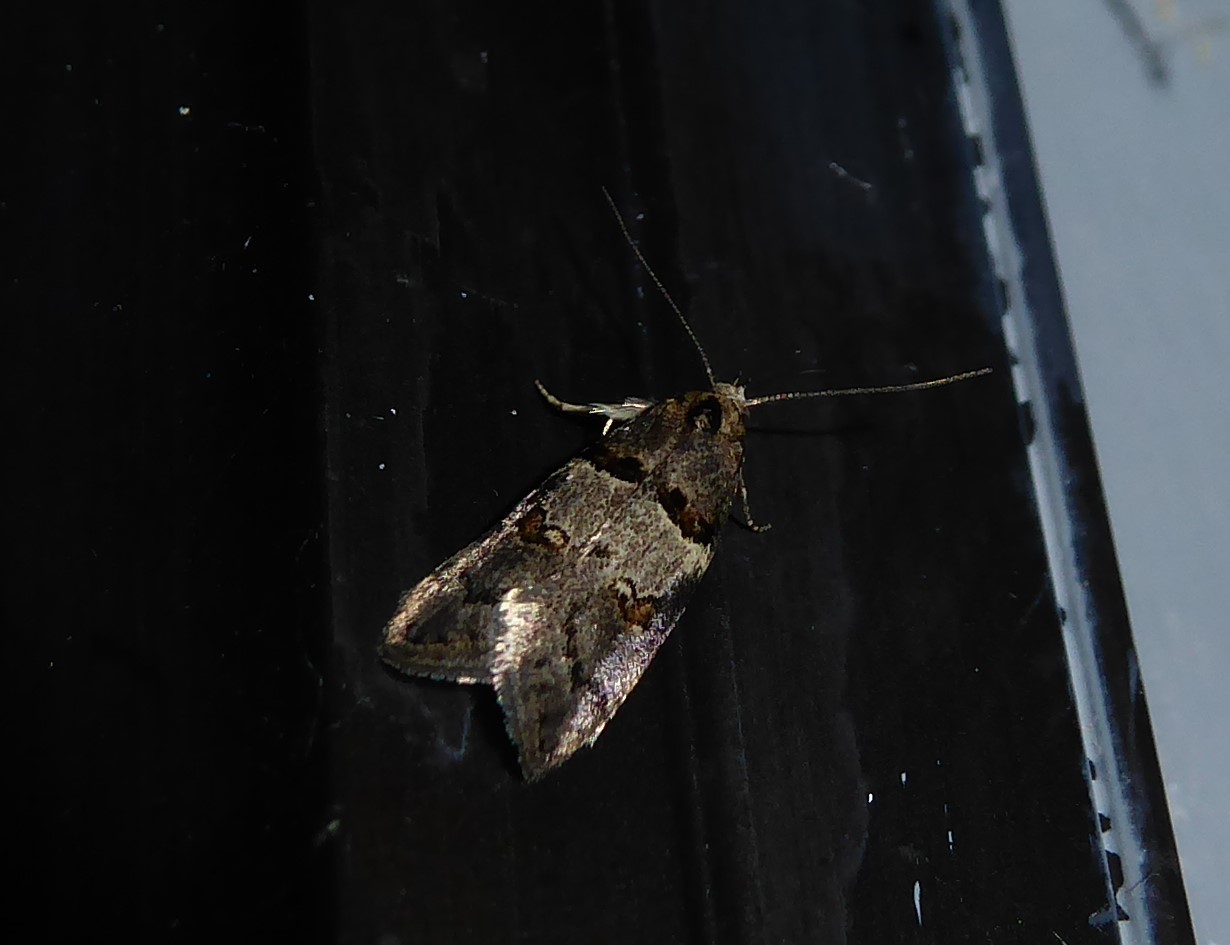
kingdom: Animalia
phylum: Arthropoda
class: Insecta
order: Lepidoptera
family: Oecophoridae
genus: Trachypepla
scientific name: Trachypepla contritella
